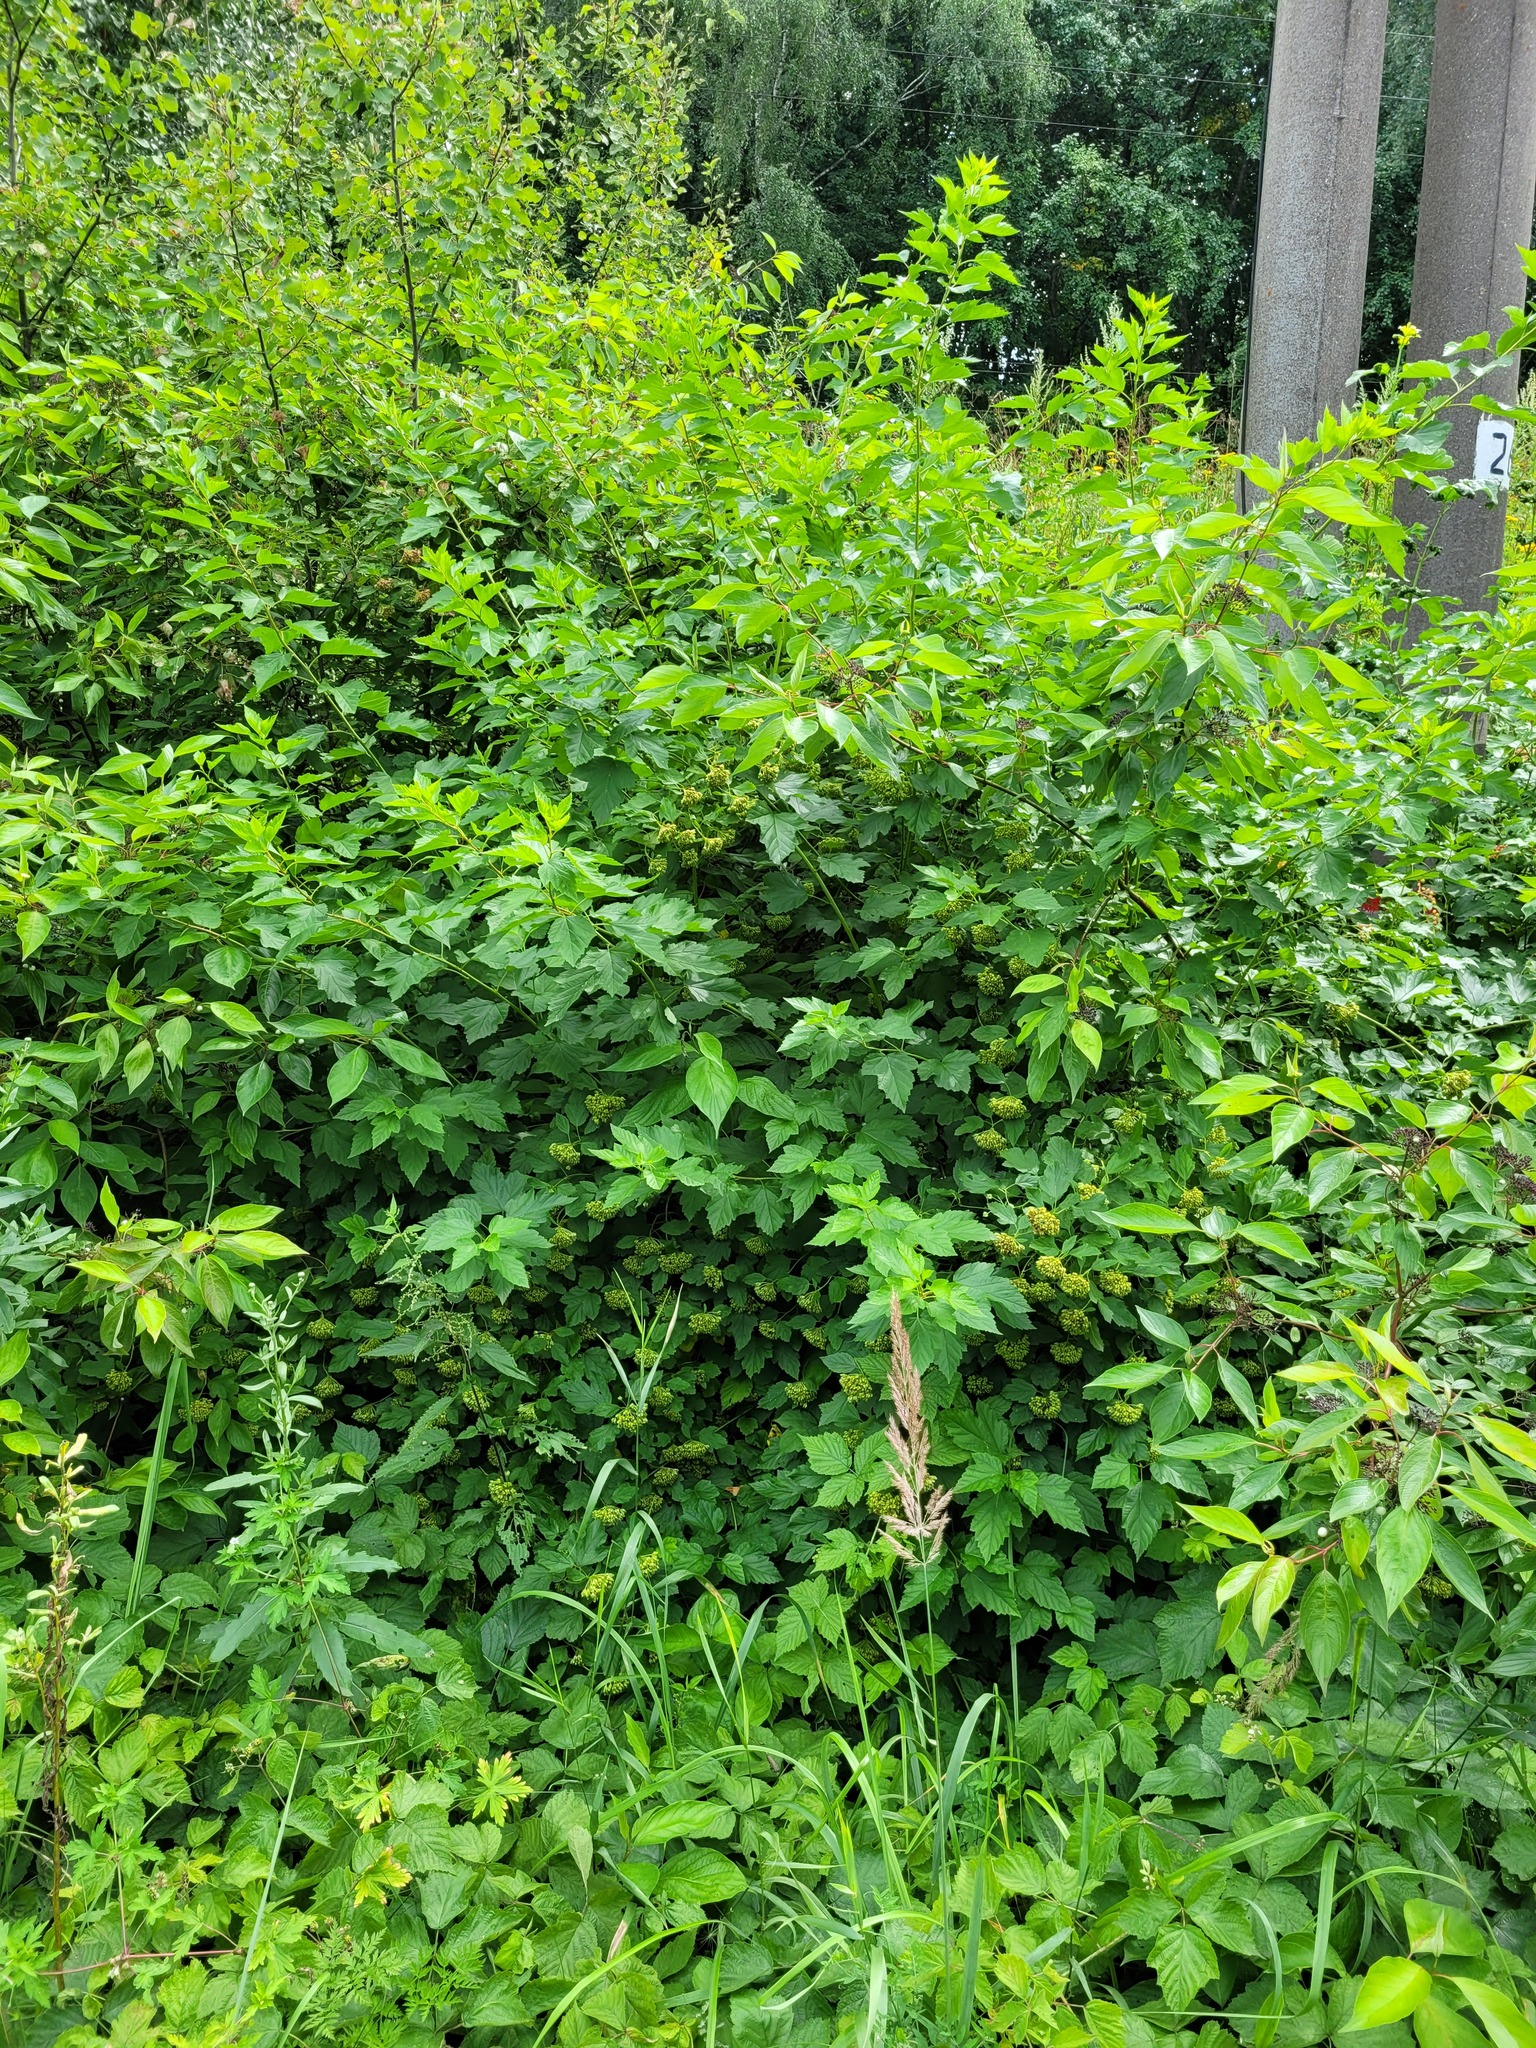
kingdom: Plantae
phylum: Tracheophyta
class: Magnoliopsida
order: Rosales
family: Rosaceae
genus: Physocarpus
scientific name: Physocarpus opulifolius
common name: Ninebark
